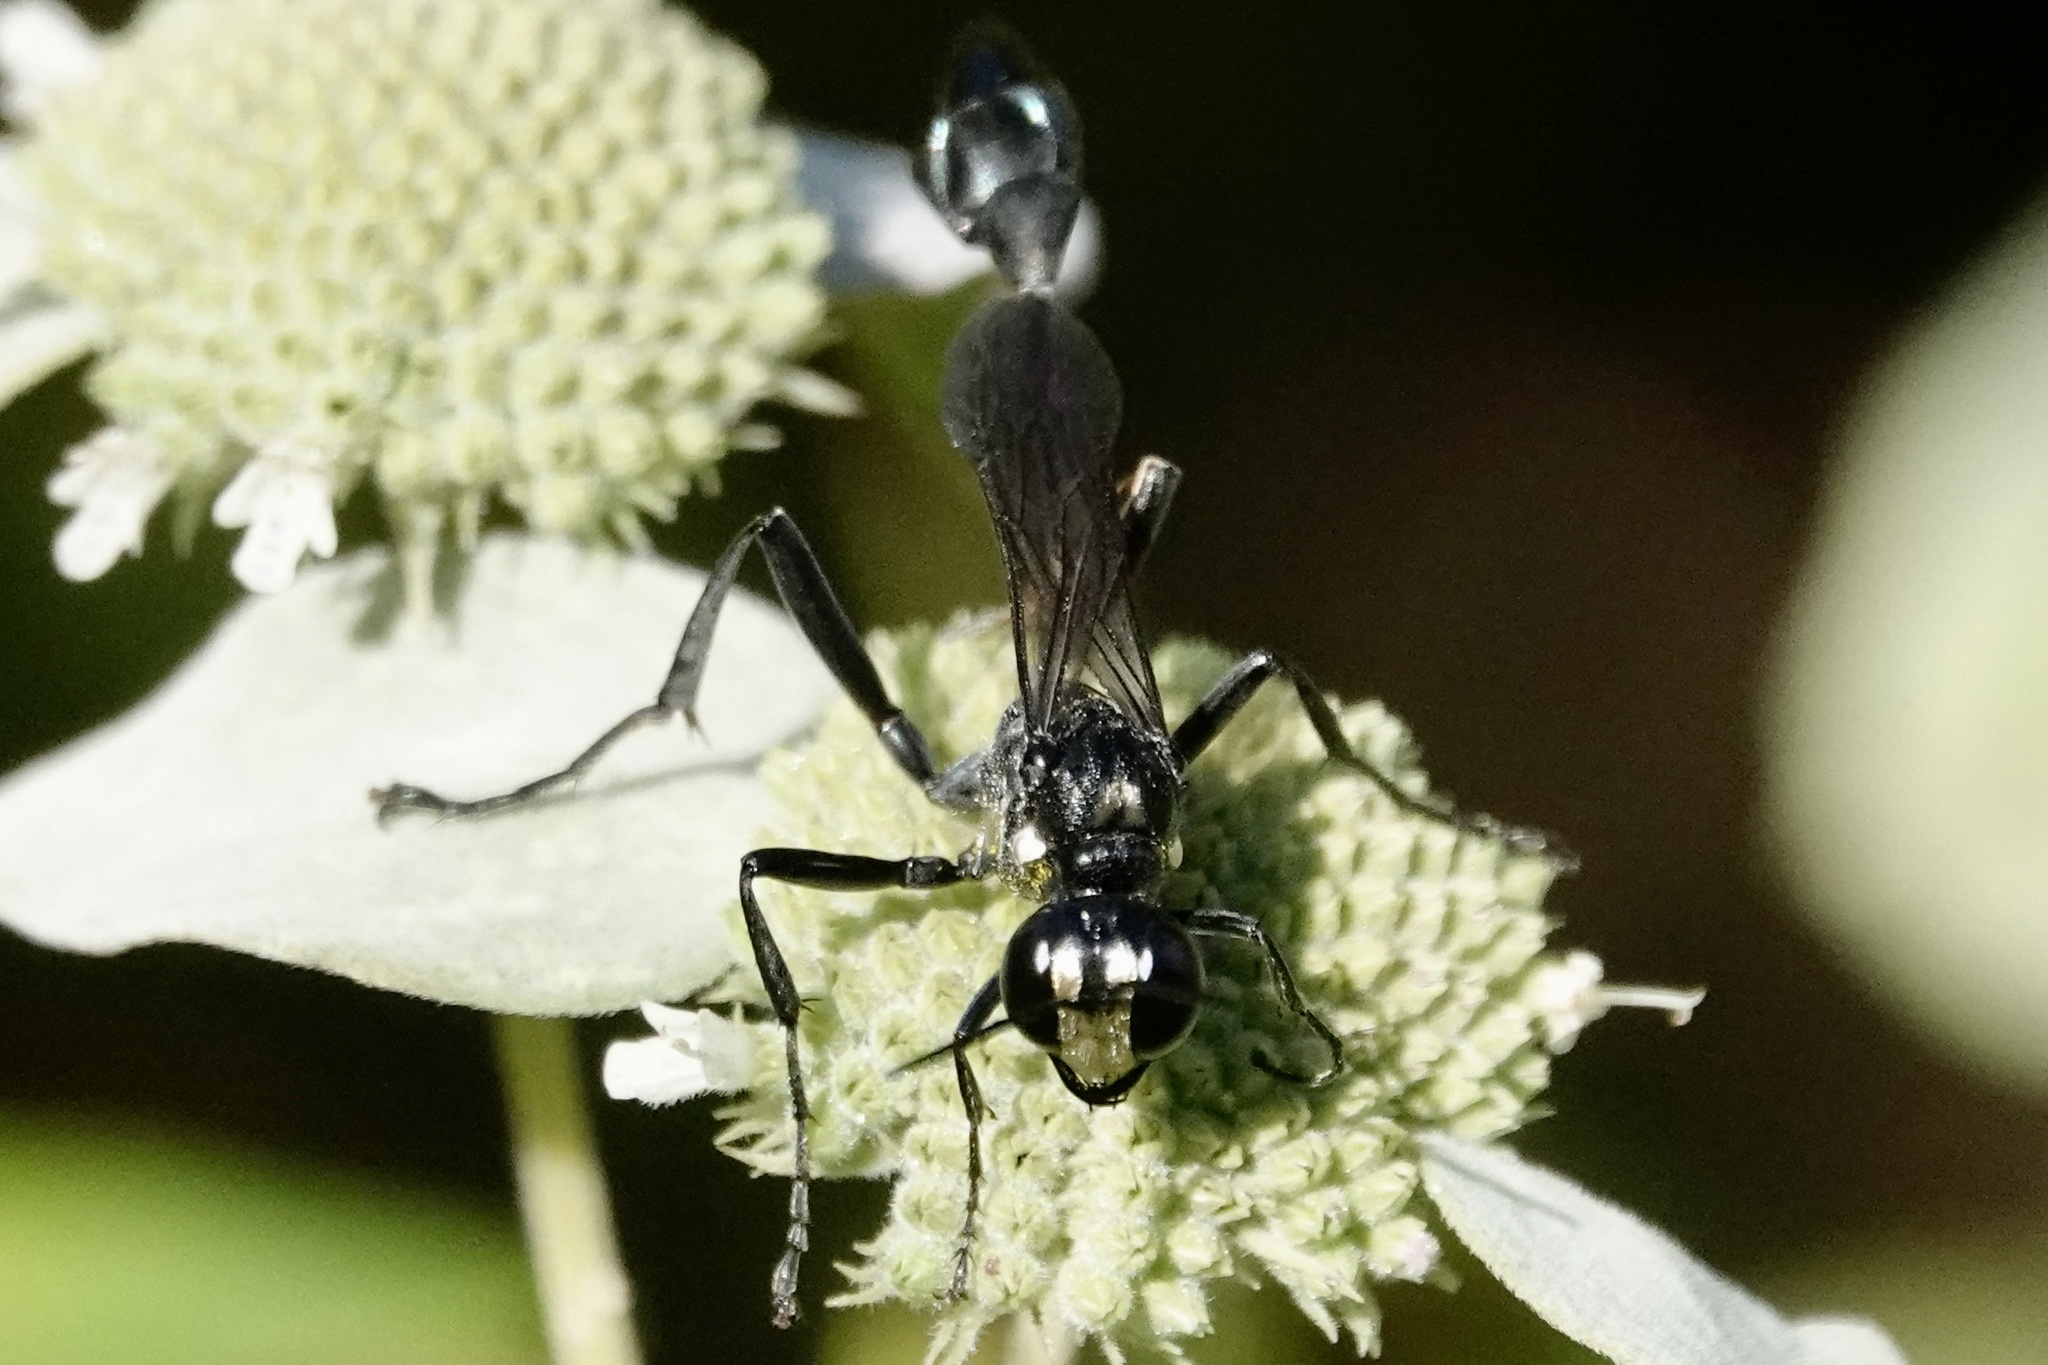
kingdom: Animalia
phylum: Arthropoda
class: Insecta
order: Hymenoptera
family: Sphecidae
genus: Eremnophila
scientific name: Eremnophila aureonotata
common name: Gold-marked thread-waisted wasp
